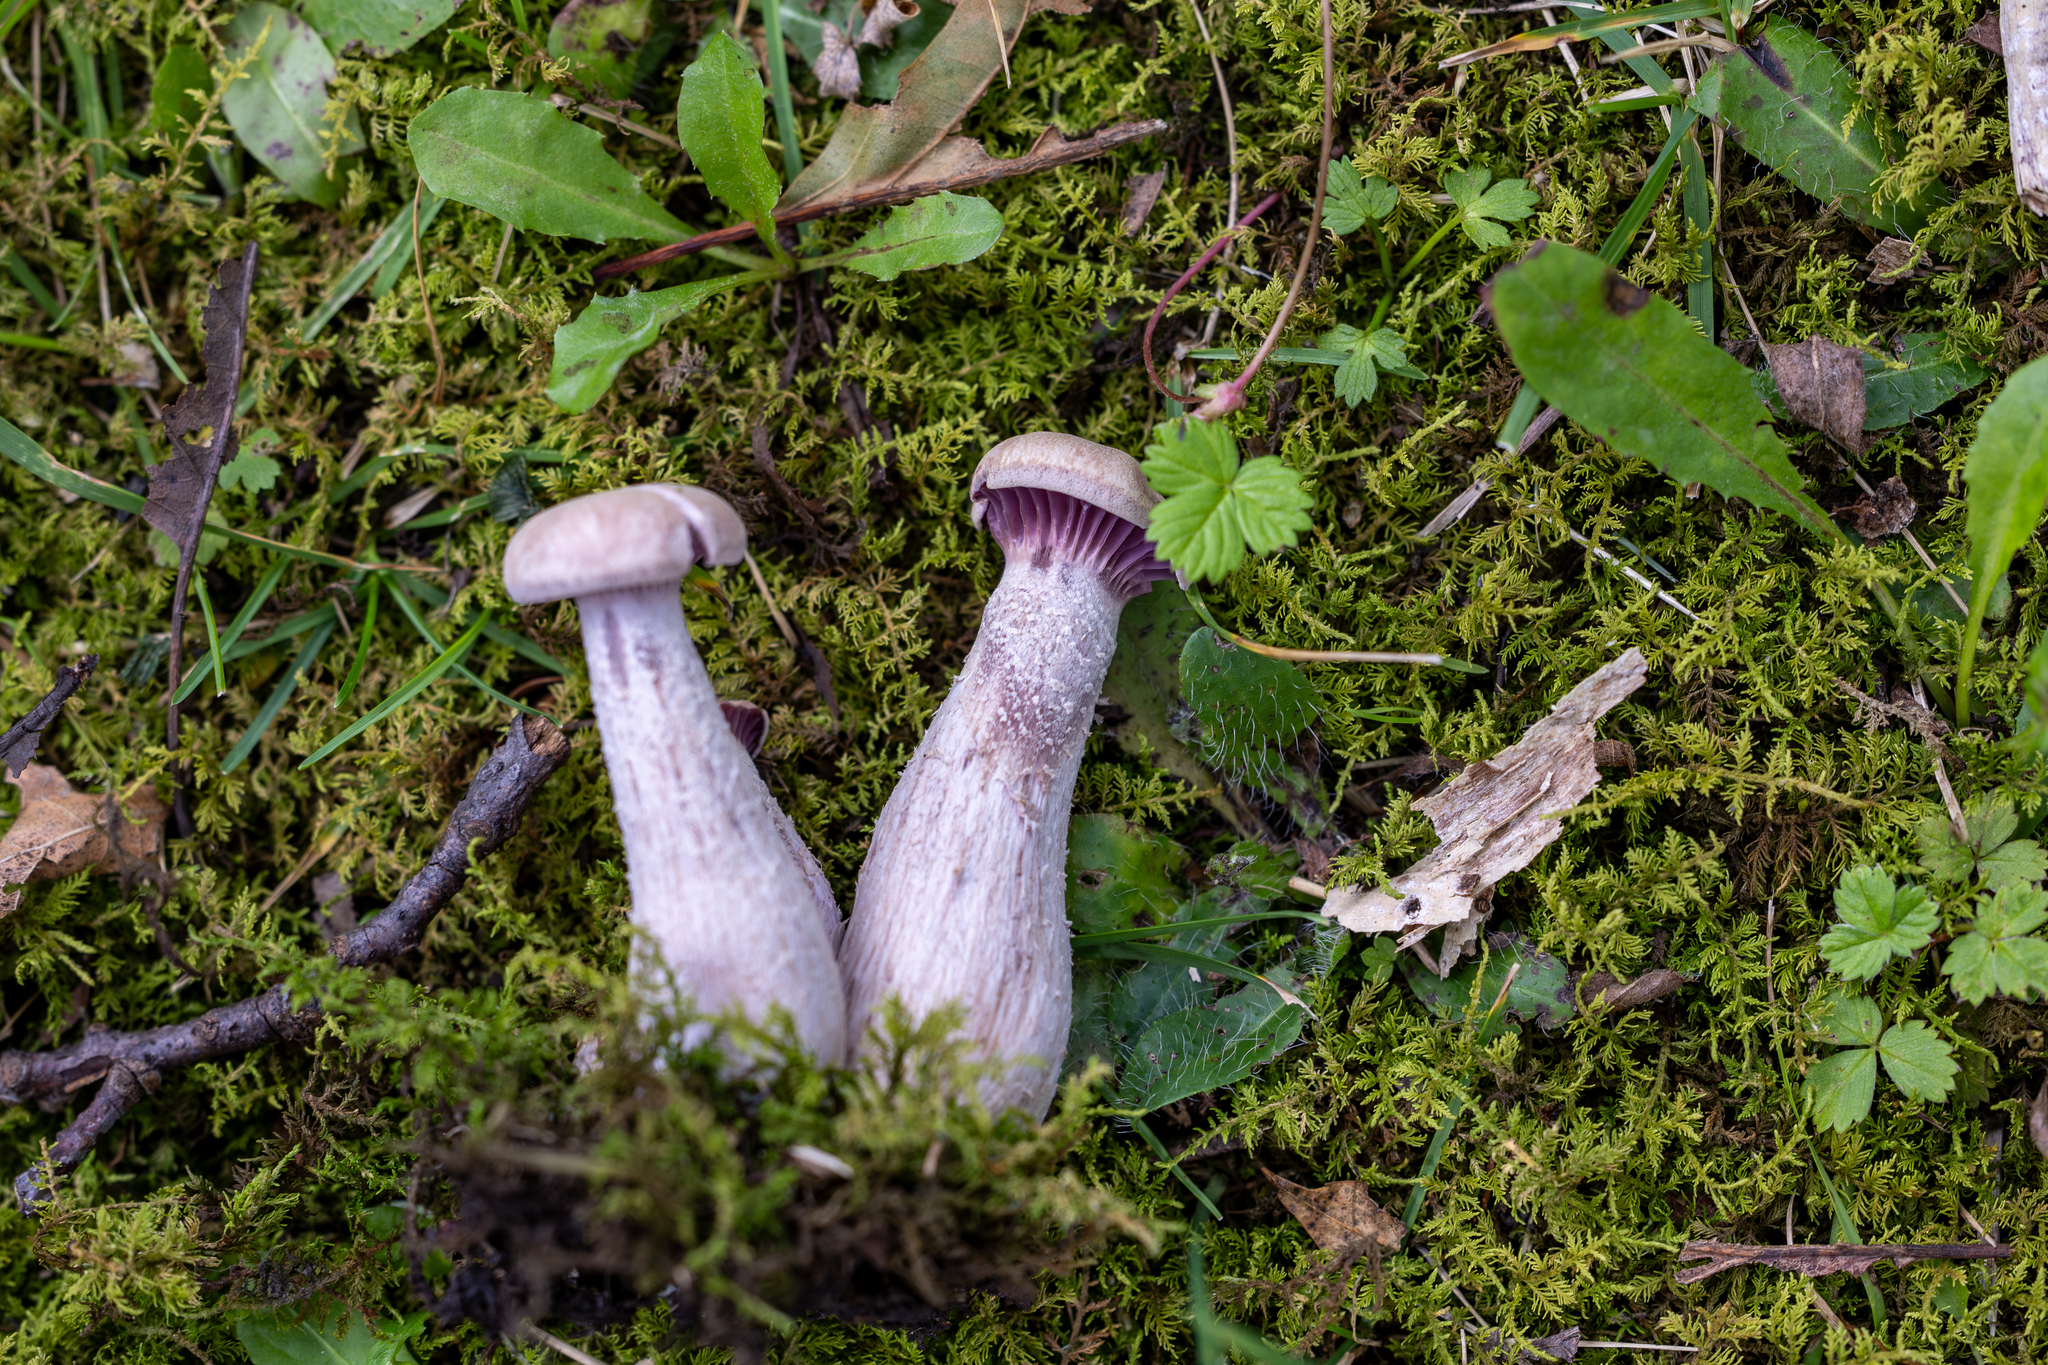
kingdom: Fungi
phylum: Basidiomycota
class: Agaricomycetes
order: Agaricales
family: Hydnangiaceae
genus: Laccaria
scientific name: Laccaria ochropurpurea
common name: Purple laccaria
